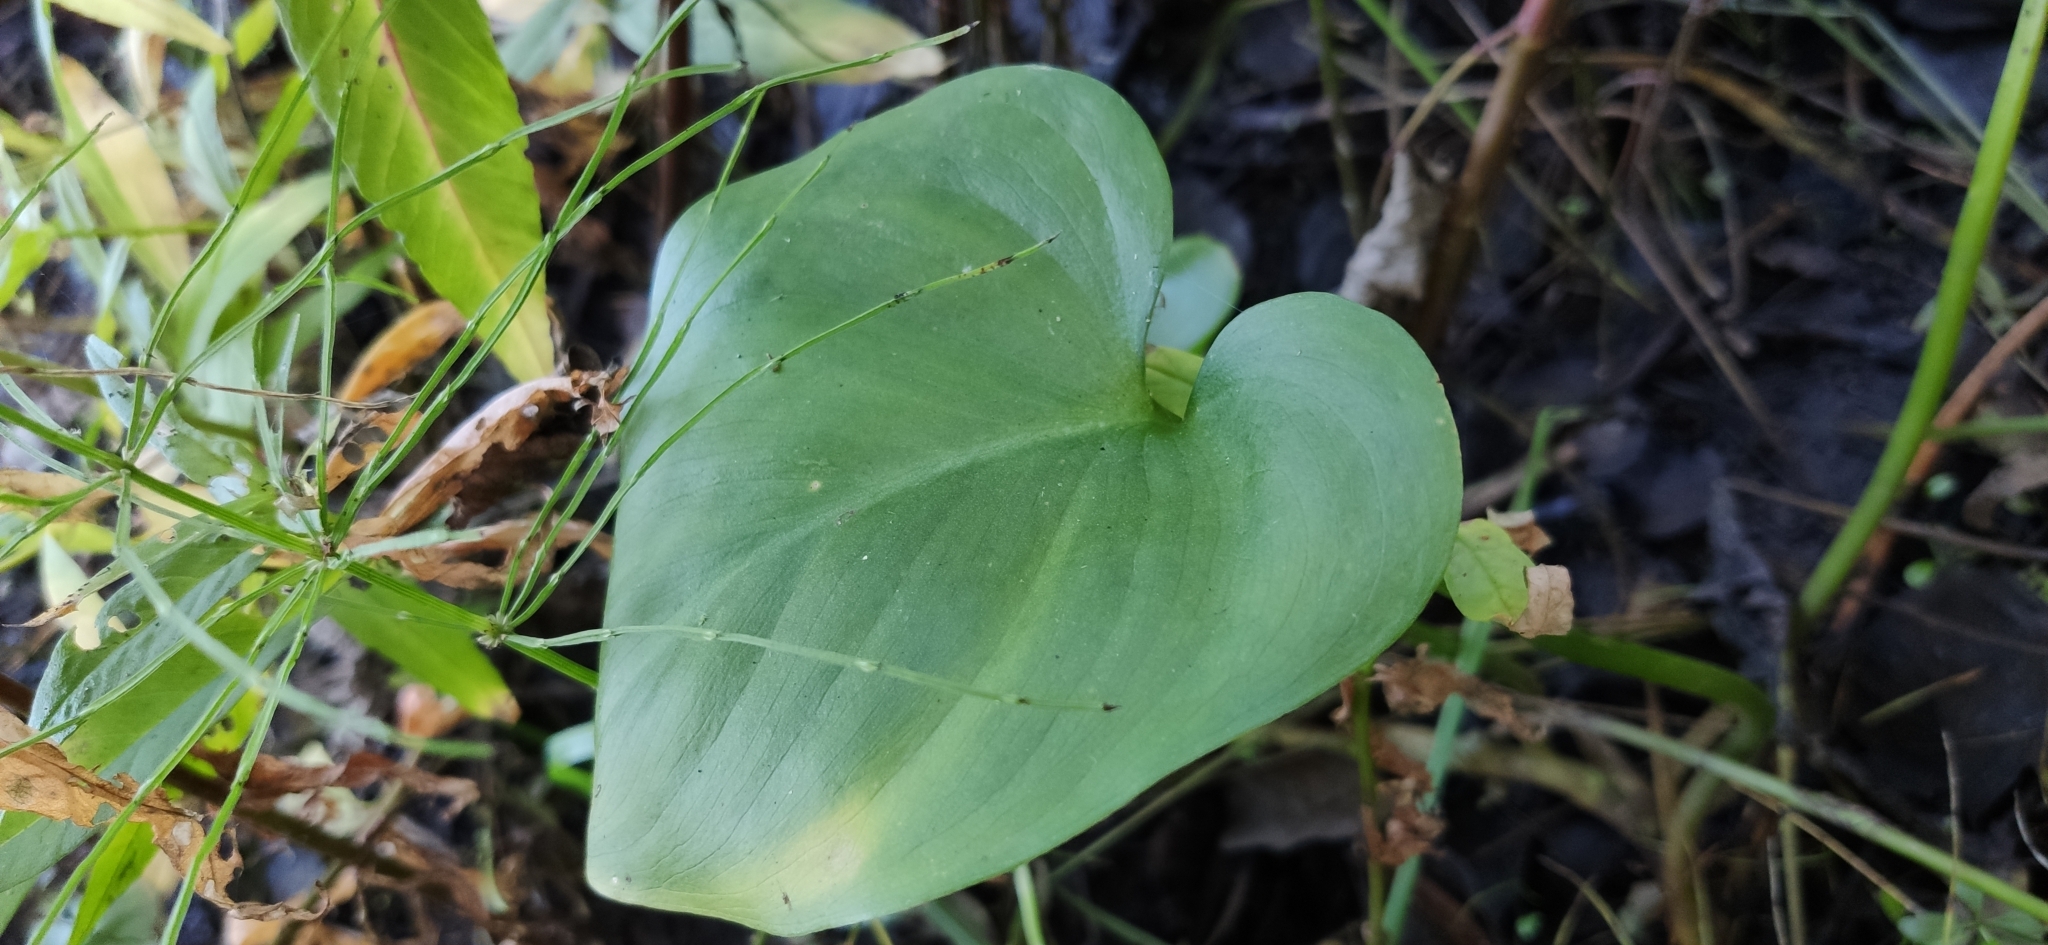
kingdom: Plantae
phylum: Tracheophyta
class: Liliopsida
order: Alismatales
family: Araceae
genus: Calla
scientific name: Calla palustris
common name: Bog arum
